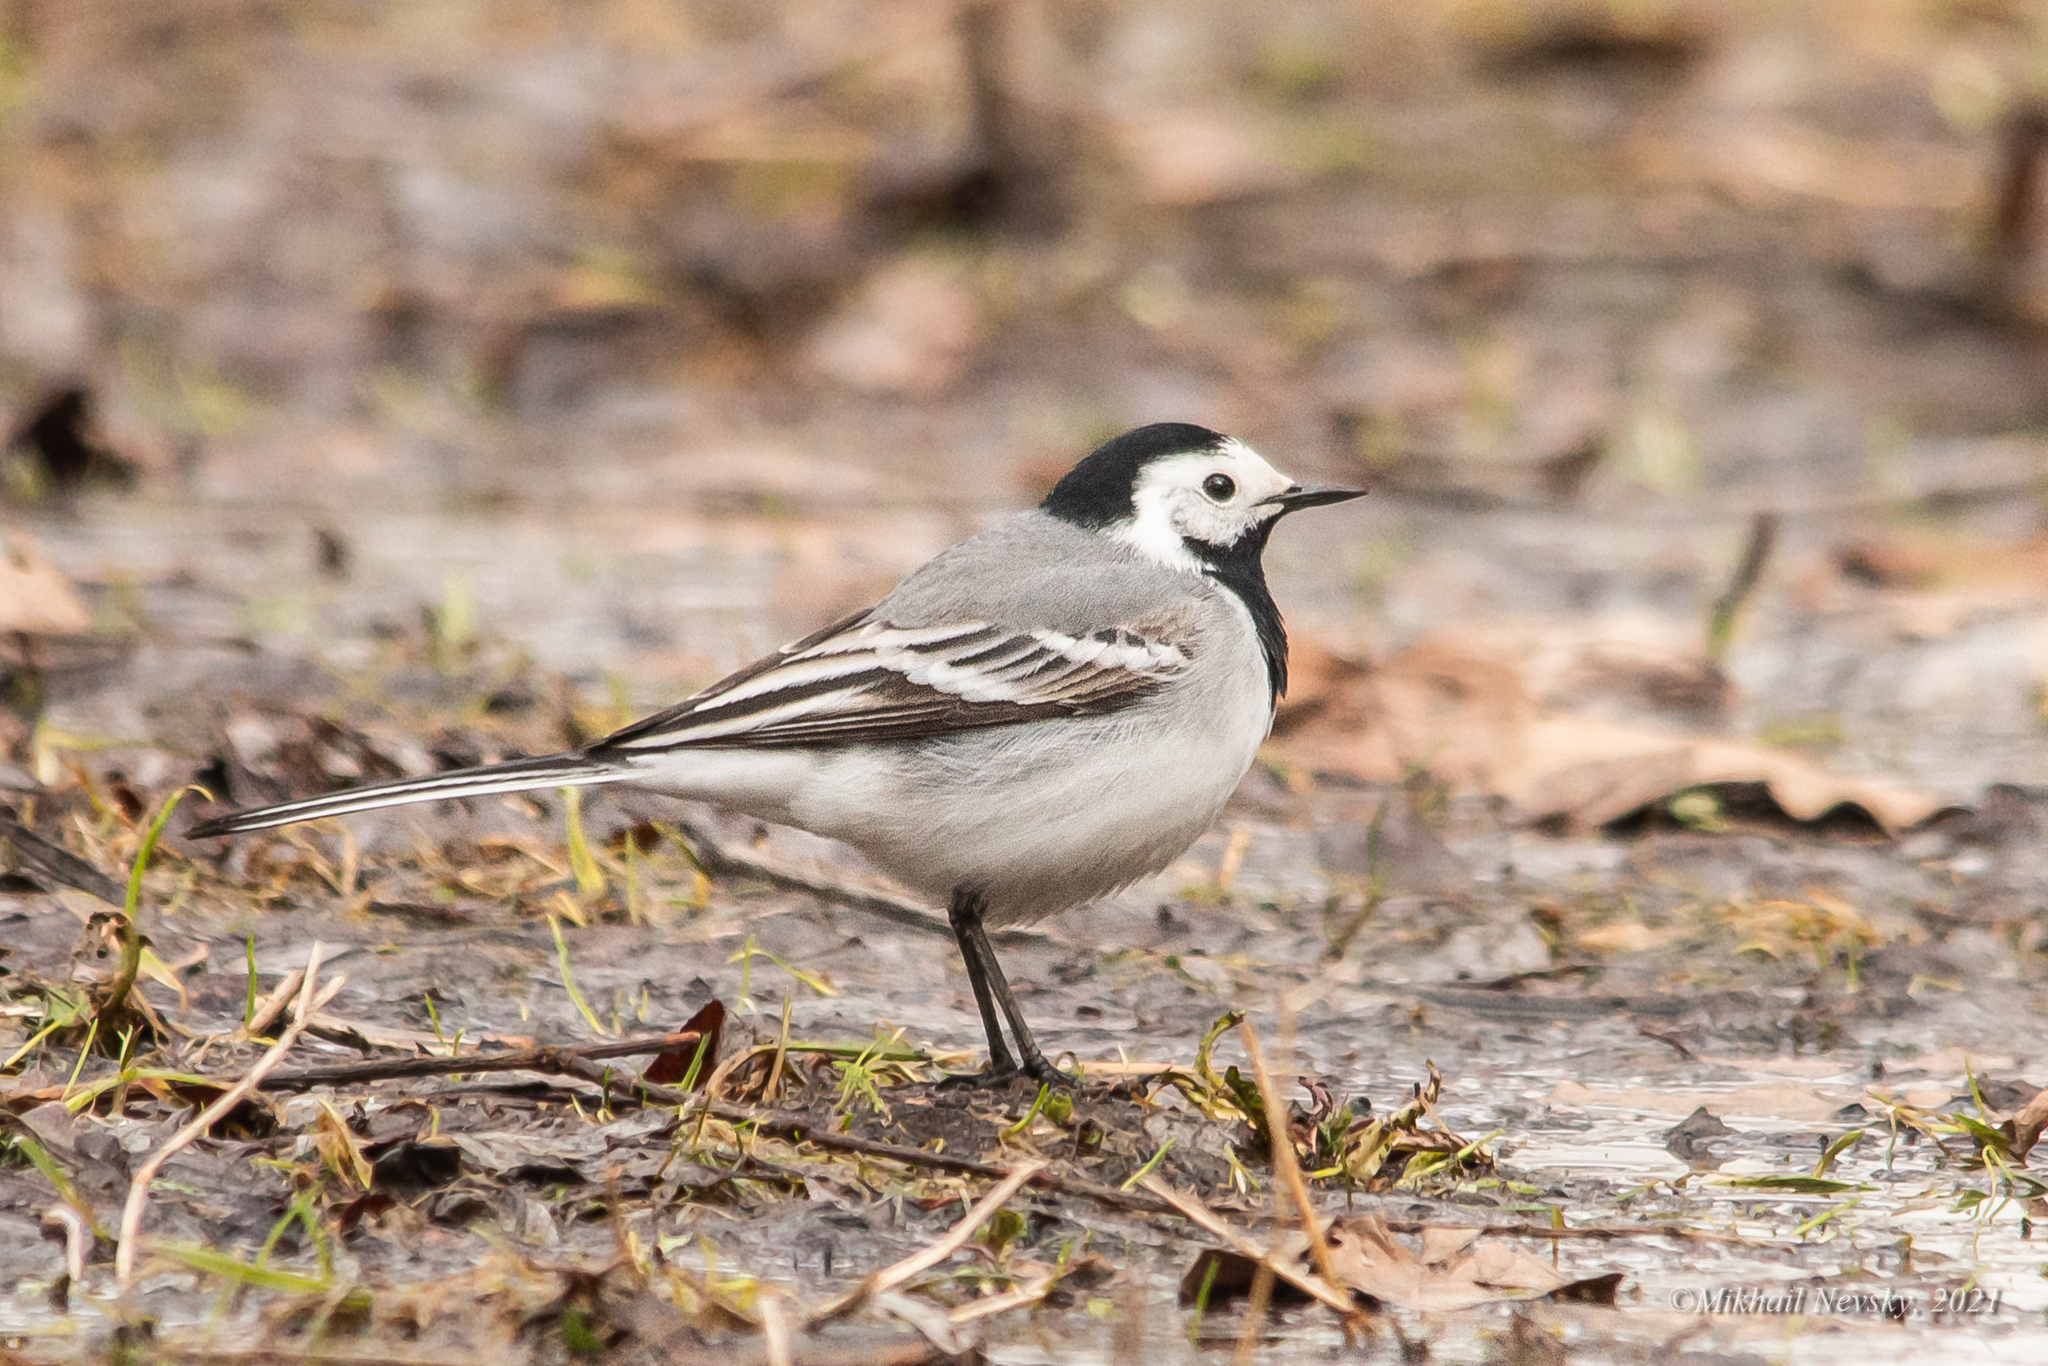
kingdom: Animalia
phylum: Chordata
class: Aves
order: Passeriformes
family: Motacillidae
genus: Motacilla
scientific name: Motacilla alba
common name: White wagtail
